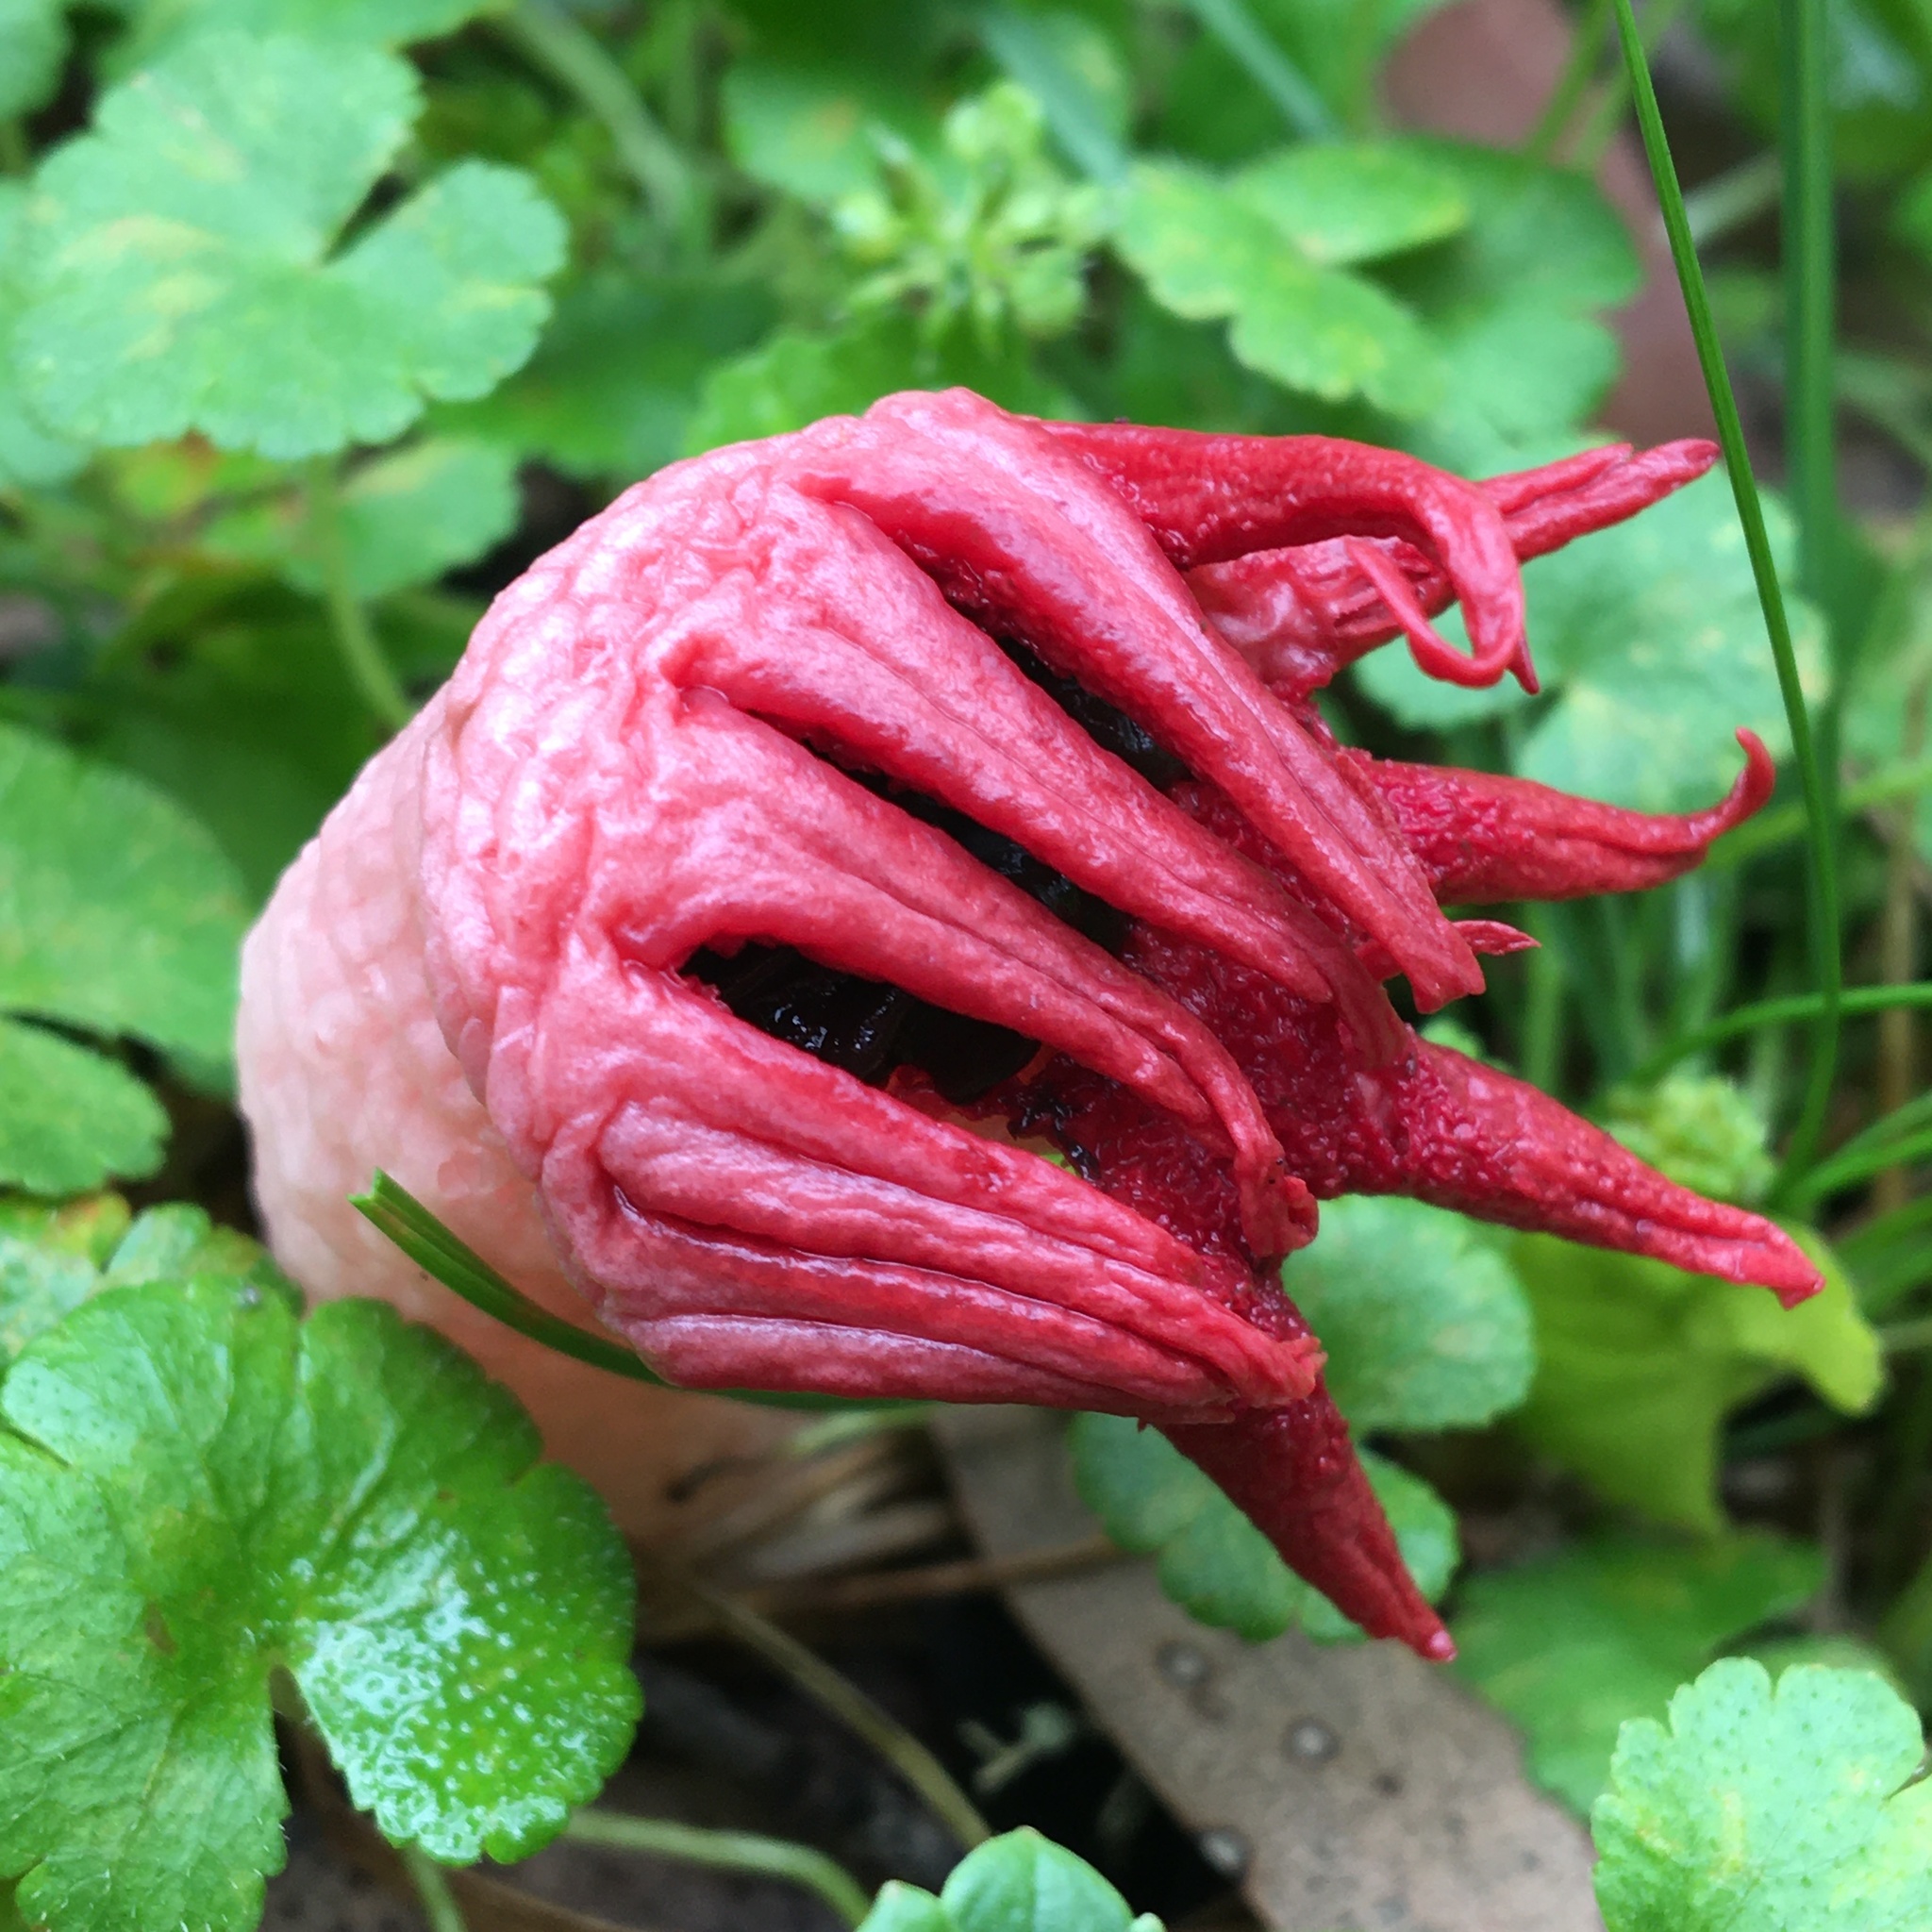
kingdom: Fungi
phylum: Basidiomycota
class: Agaricomycetes
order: Phallales
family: Phallaceae
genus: Aseroe
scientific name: Aseroe rubra
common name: Starfish fungus
